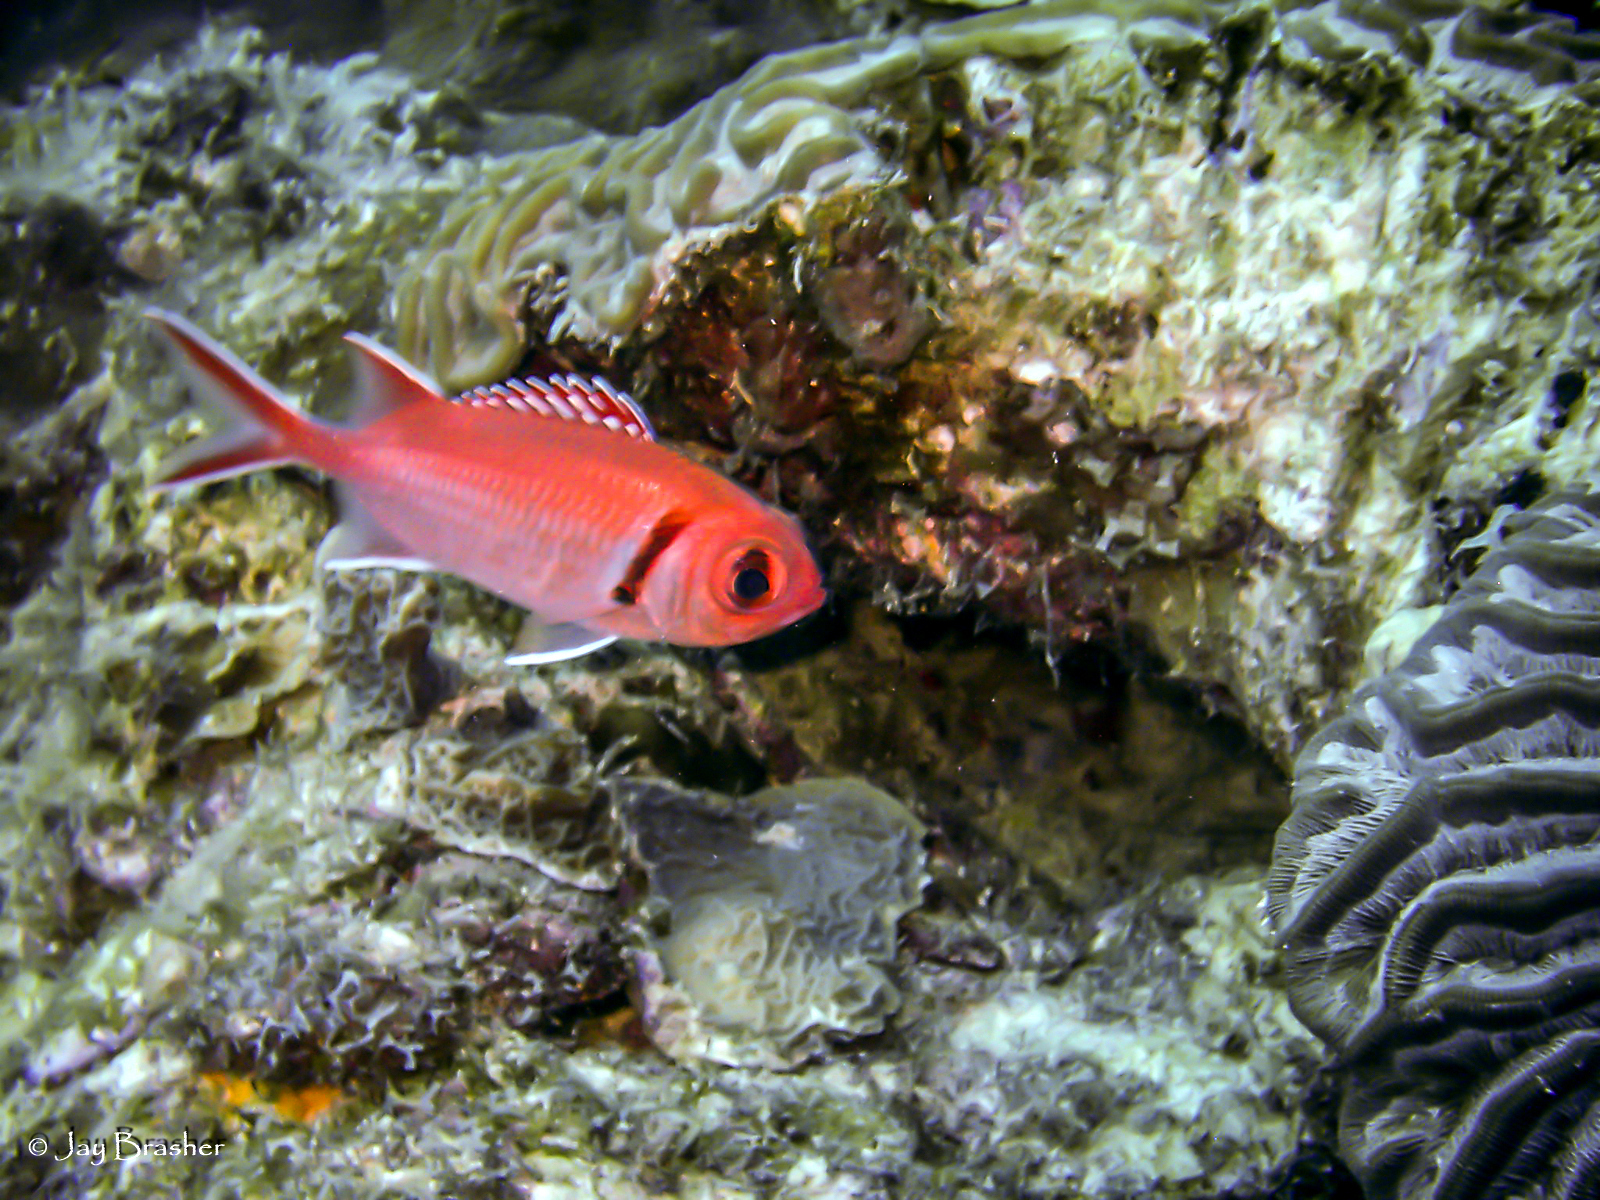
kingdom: Animalia
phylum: Chordata
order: Beryciformes
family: Holocentridae
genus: Myripristis
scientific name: Myripristis jacobus
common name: Blackbar soldierfish
